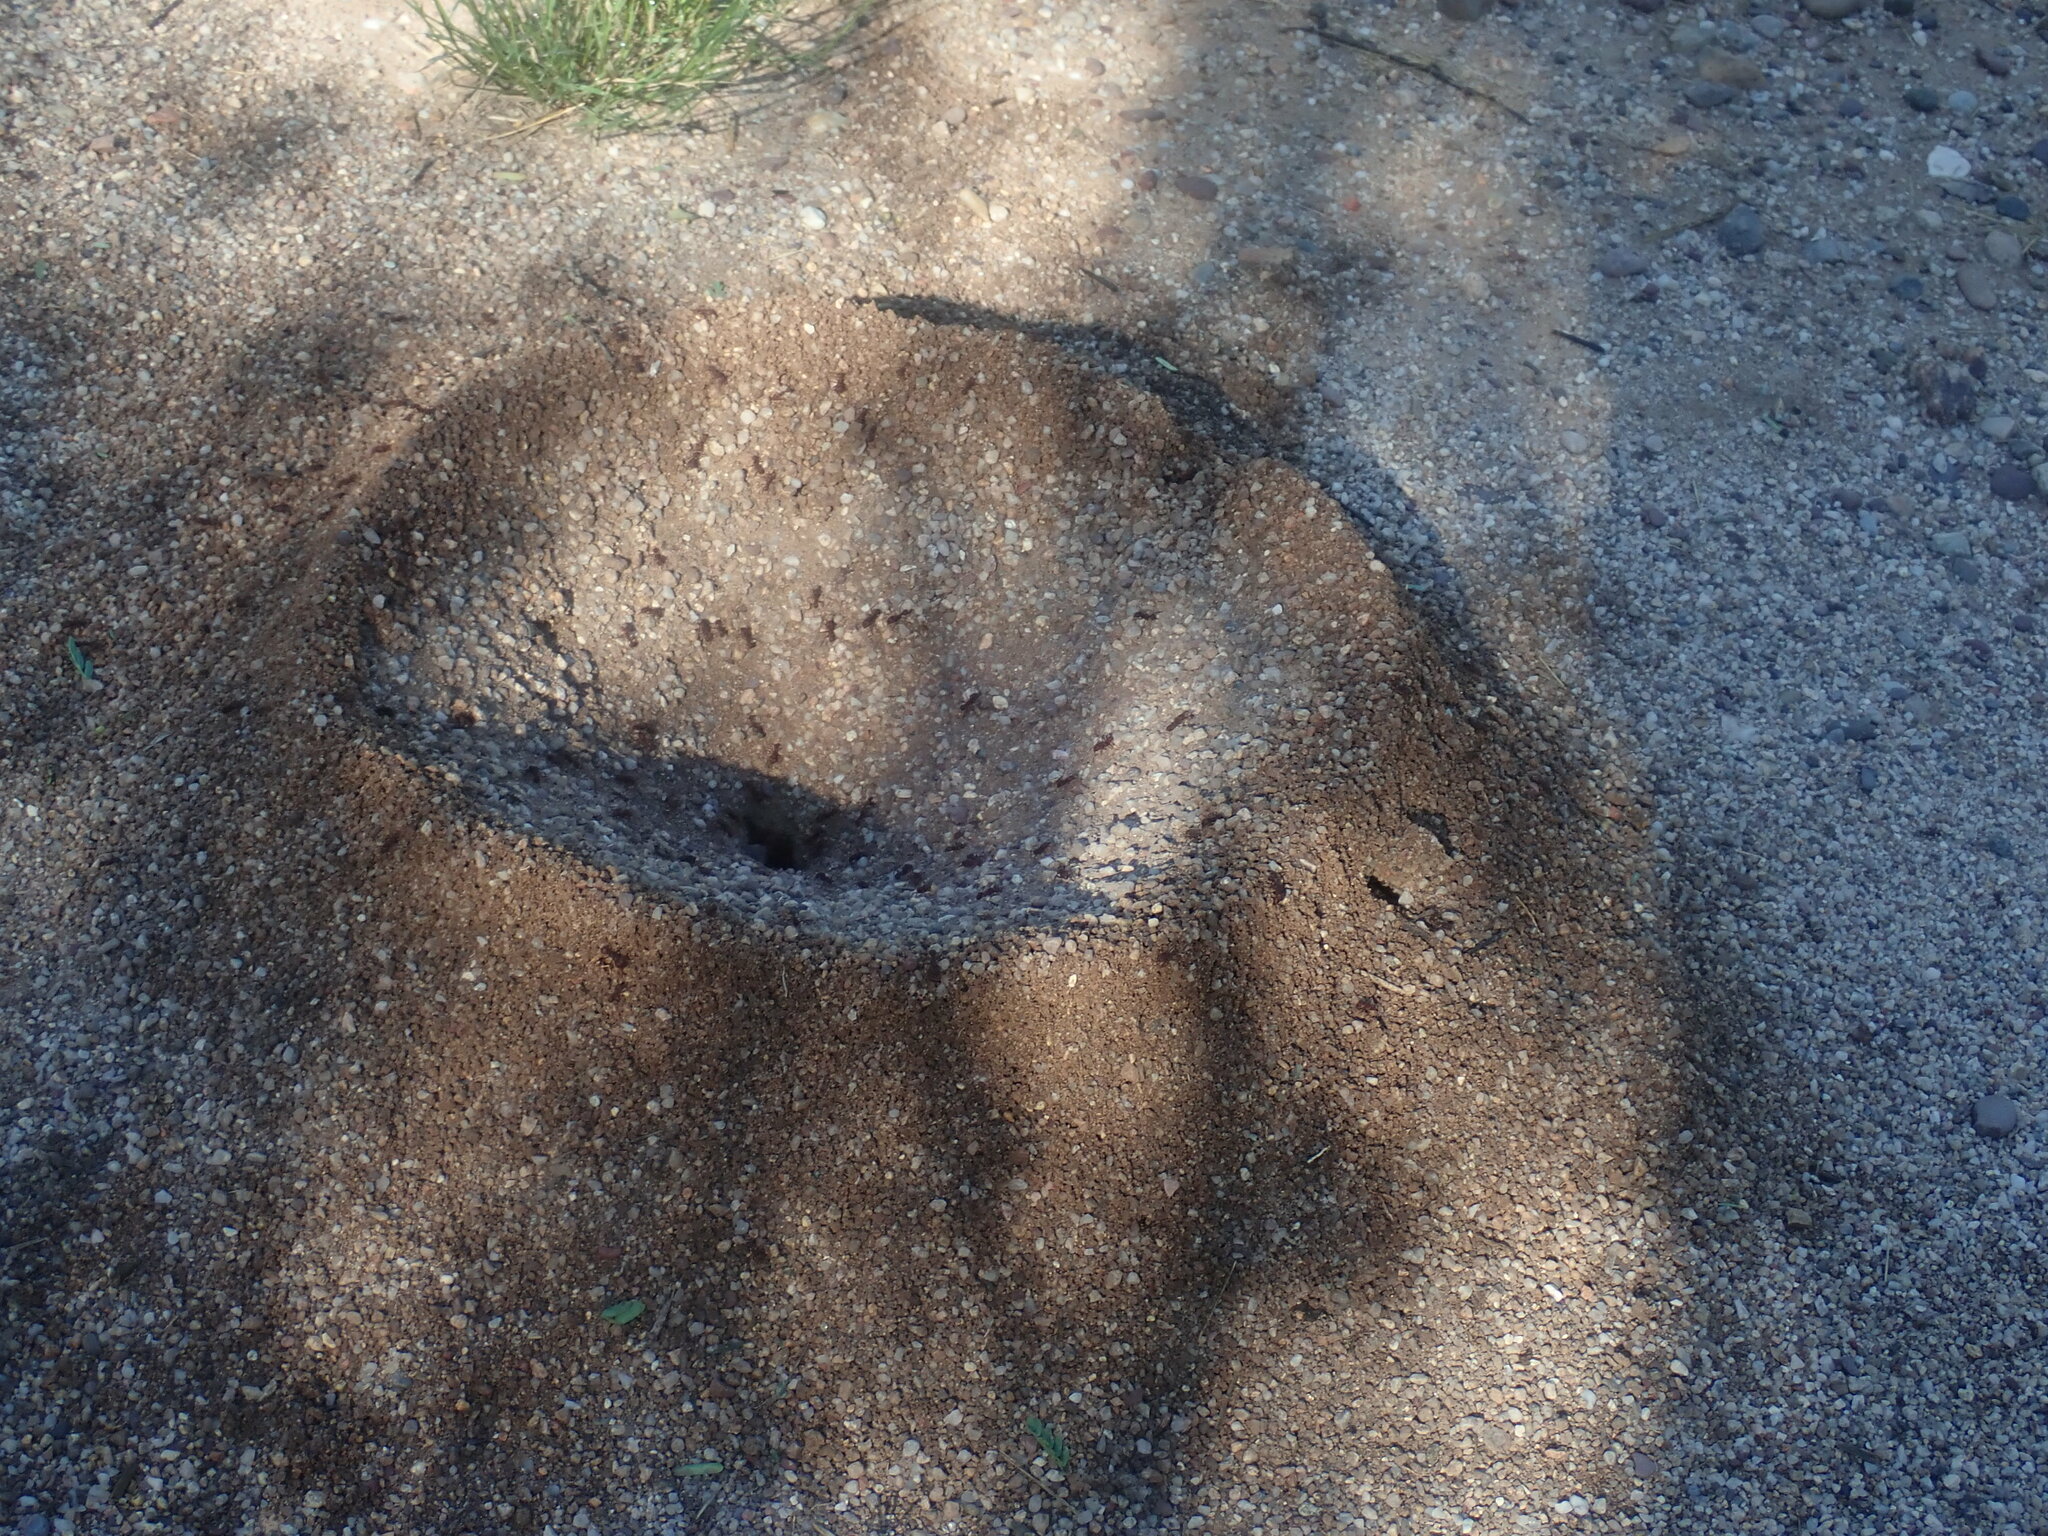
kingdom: Animalia
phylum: Arthropoda
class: Insecta
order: Hymenoptera
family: Formicidae
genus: Acromyrmex
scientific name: Acromyrmex versicolor
